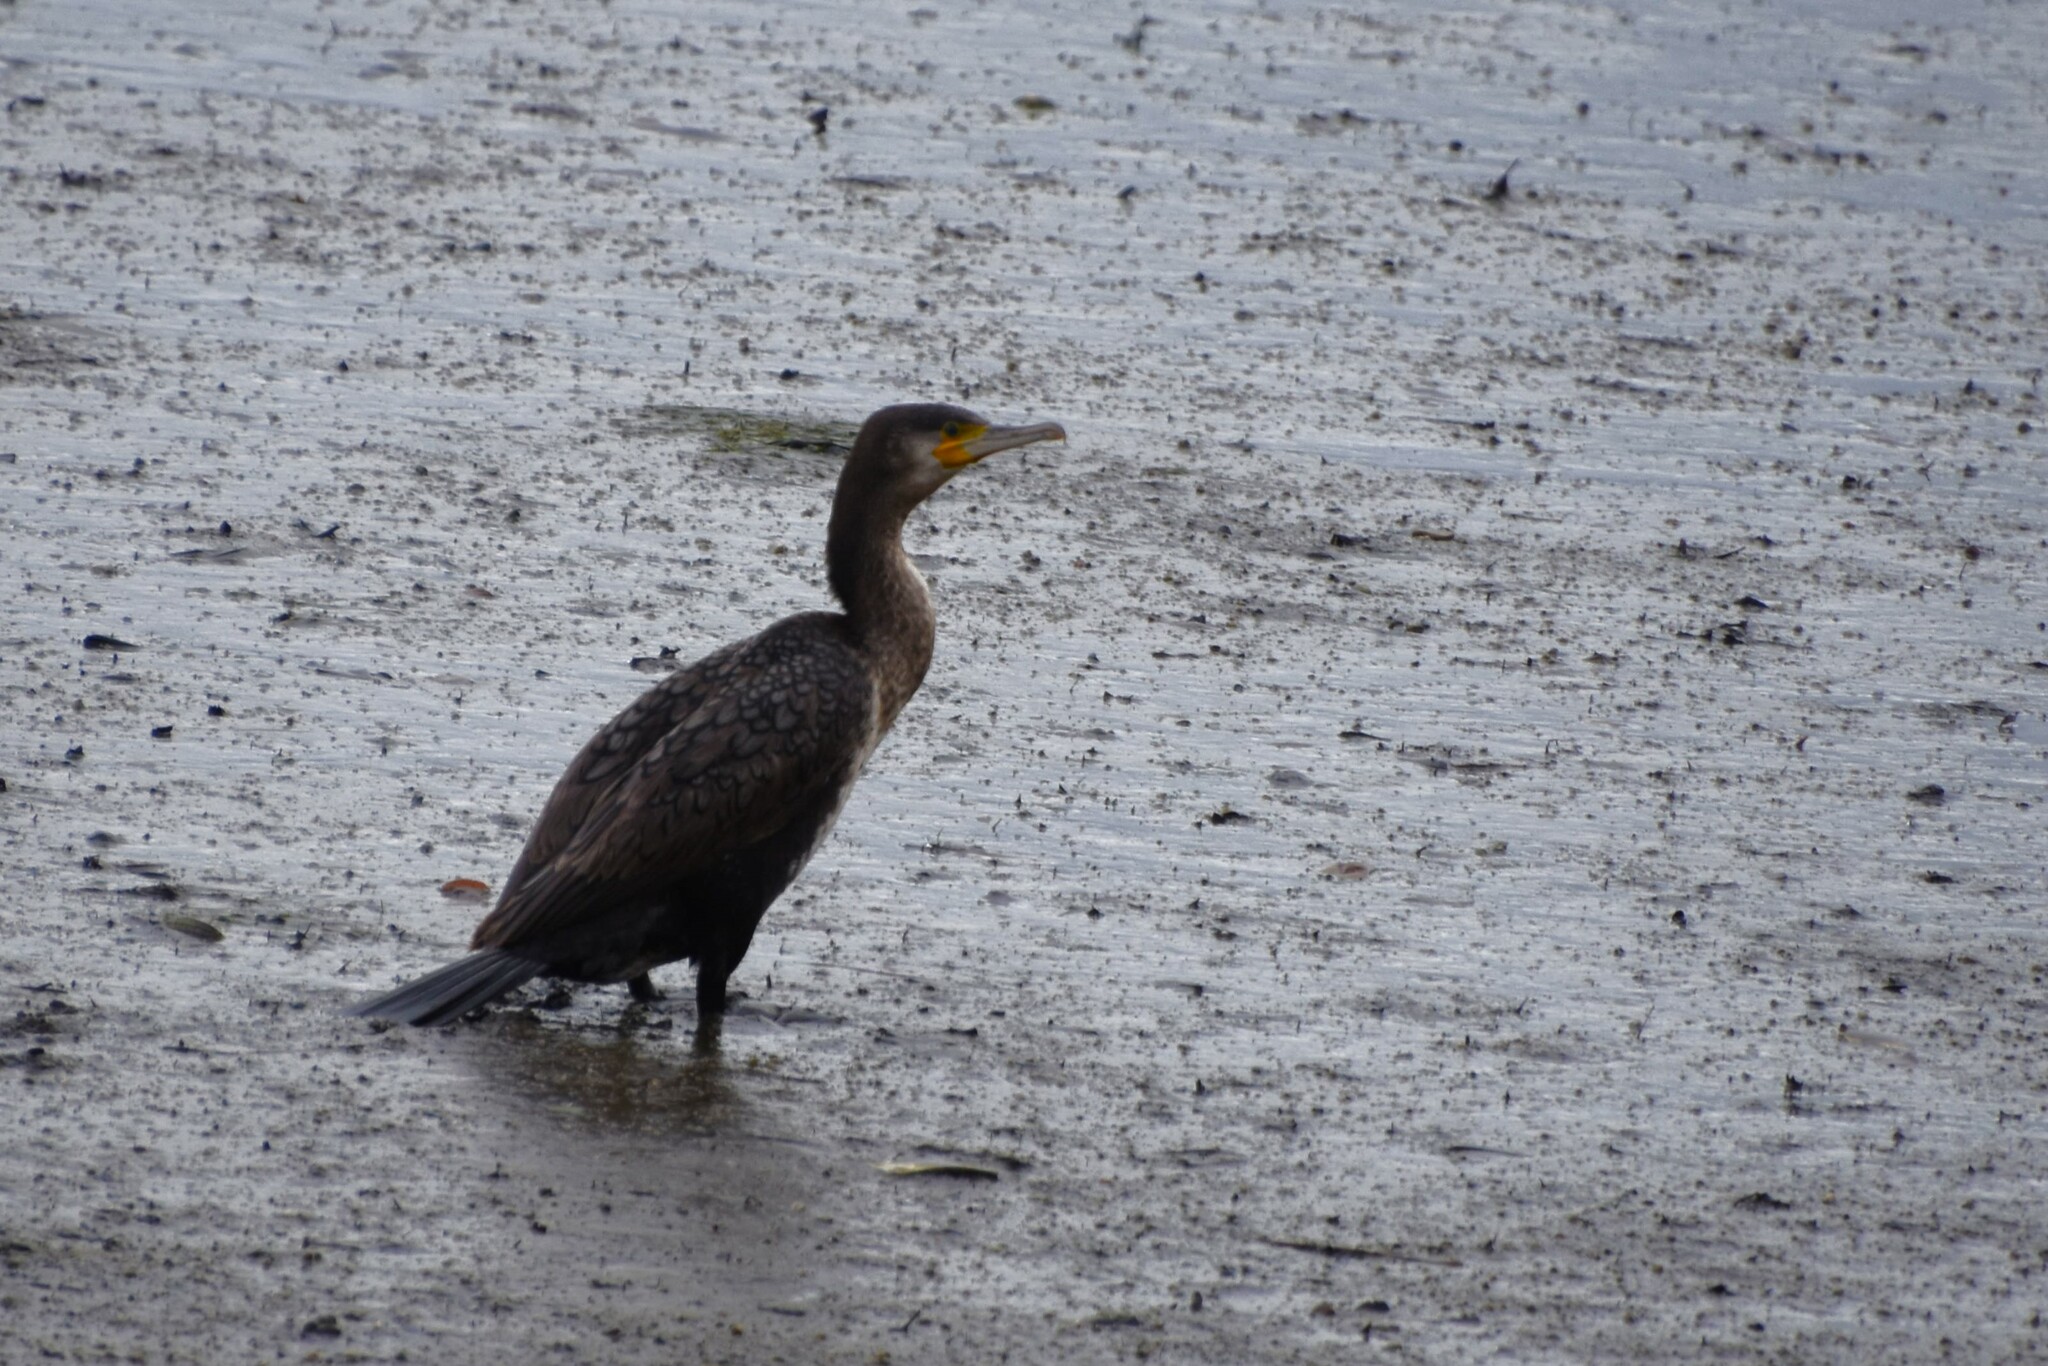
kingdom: Animalia
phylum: Chordata
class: Aves
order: Suliformes
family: Phalacrocoracidae
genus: Phalacrocorax
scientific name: Phalacrocorax carbo
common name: Great cormorant
